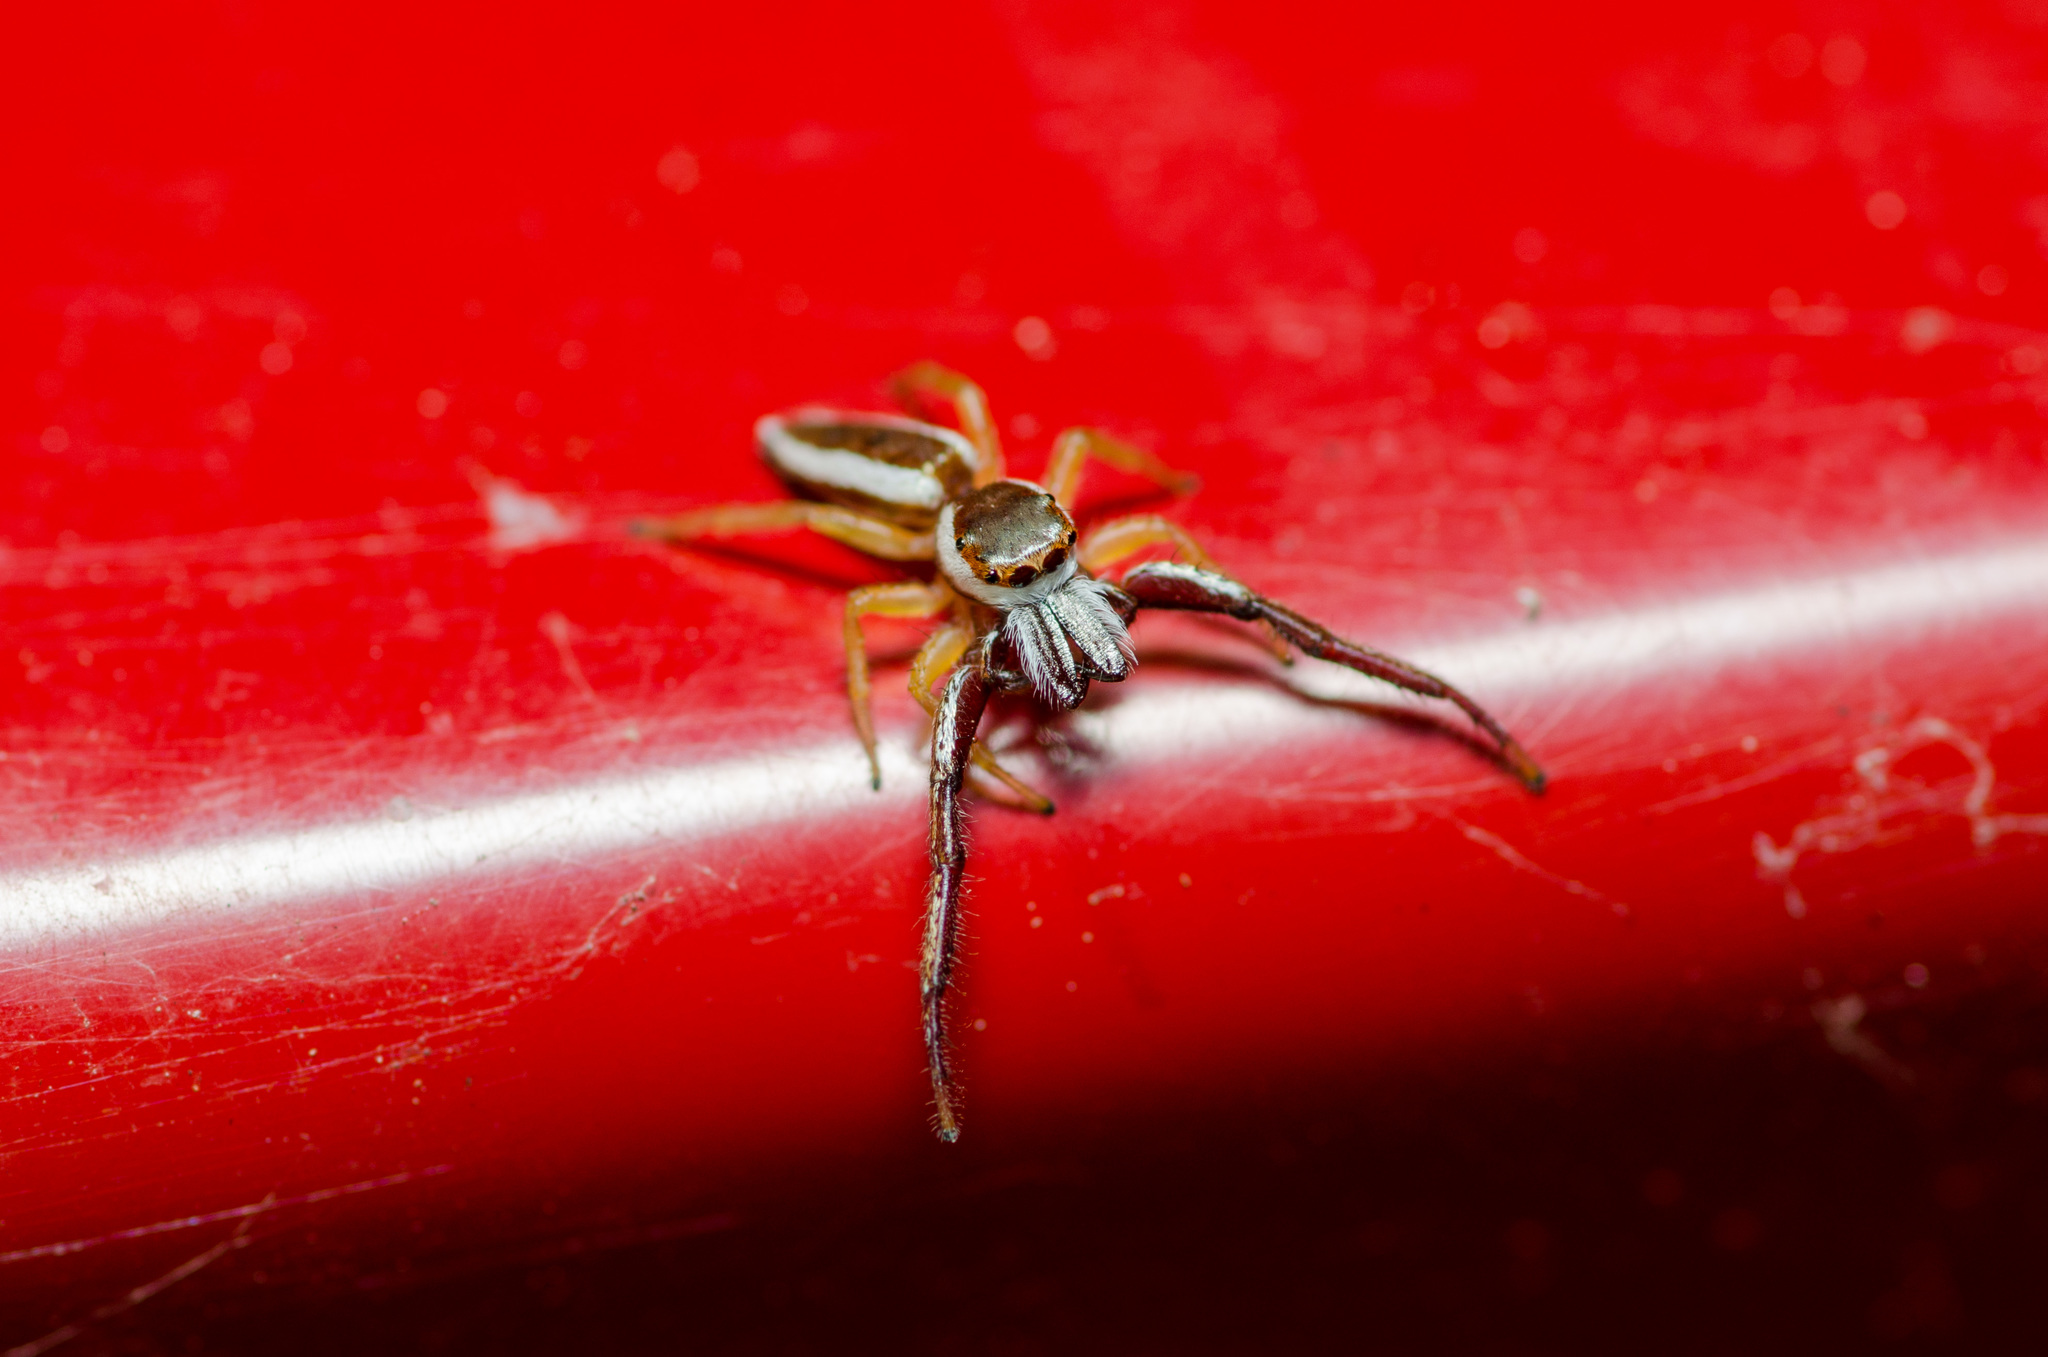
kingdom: Animalia
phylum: Arthropoda
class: Arachnida
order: Araneae
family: Salticidae
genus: Hentzia
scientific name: Hentzia palmarum
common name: Common hentz jumping spider
